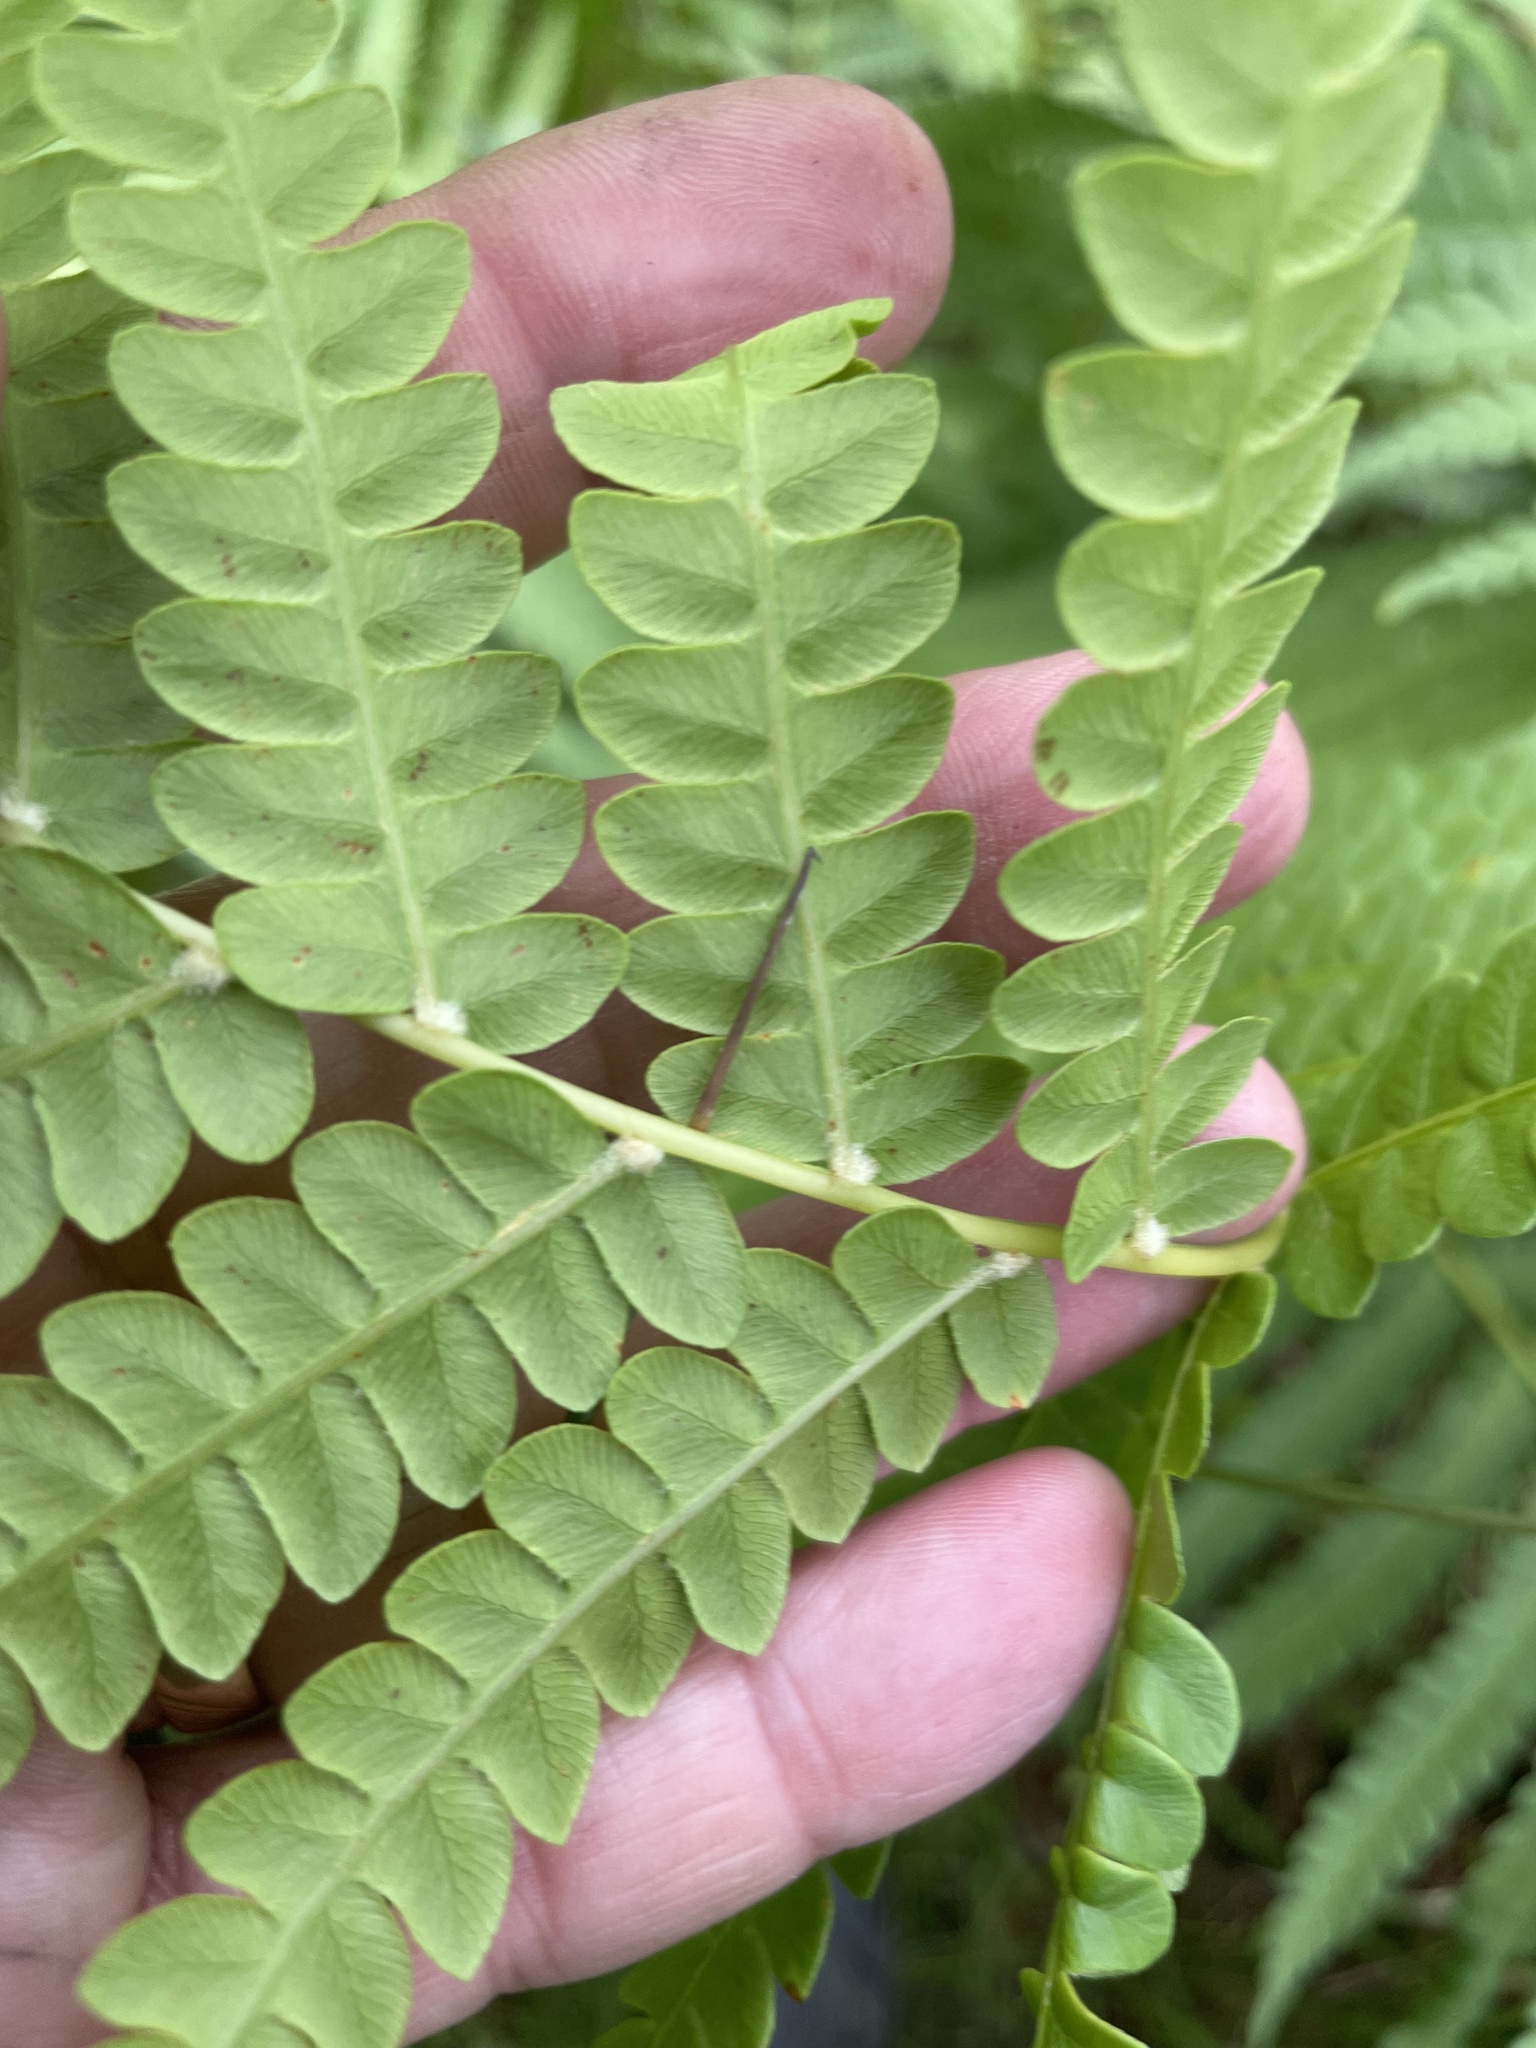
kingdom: Plantae
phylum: Tracheophyta
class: Polypodiopsida
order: Osmundales
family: Osmundaceae
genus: Osmundastrum
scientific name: Osmundastrum cinnamomeum
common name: Cinnamon fern
